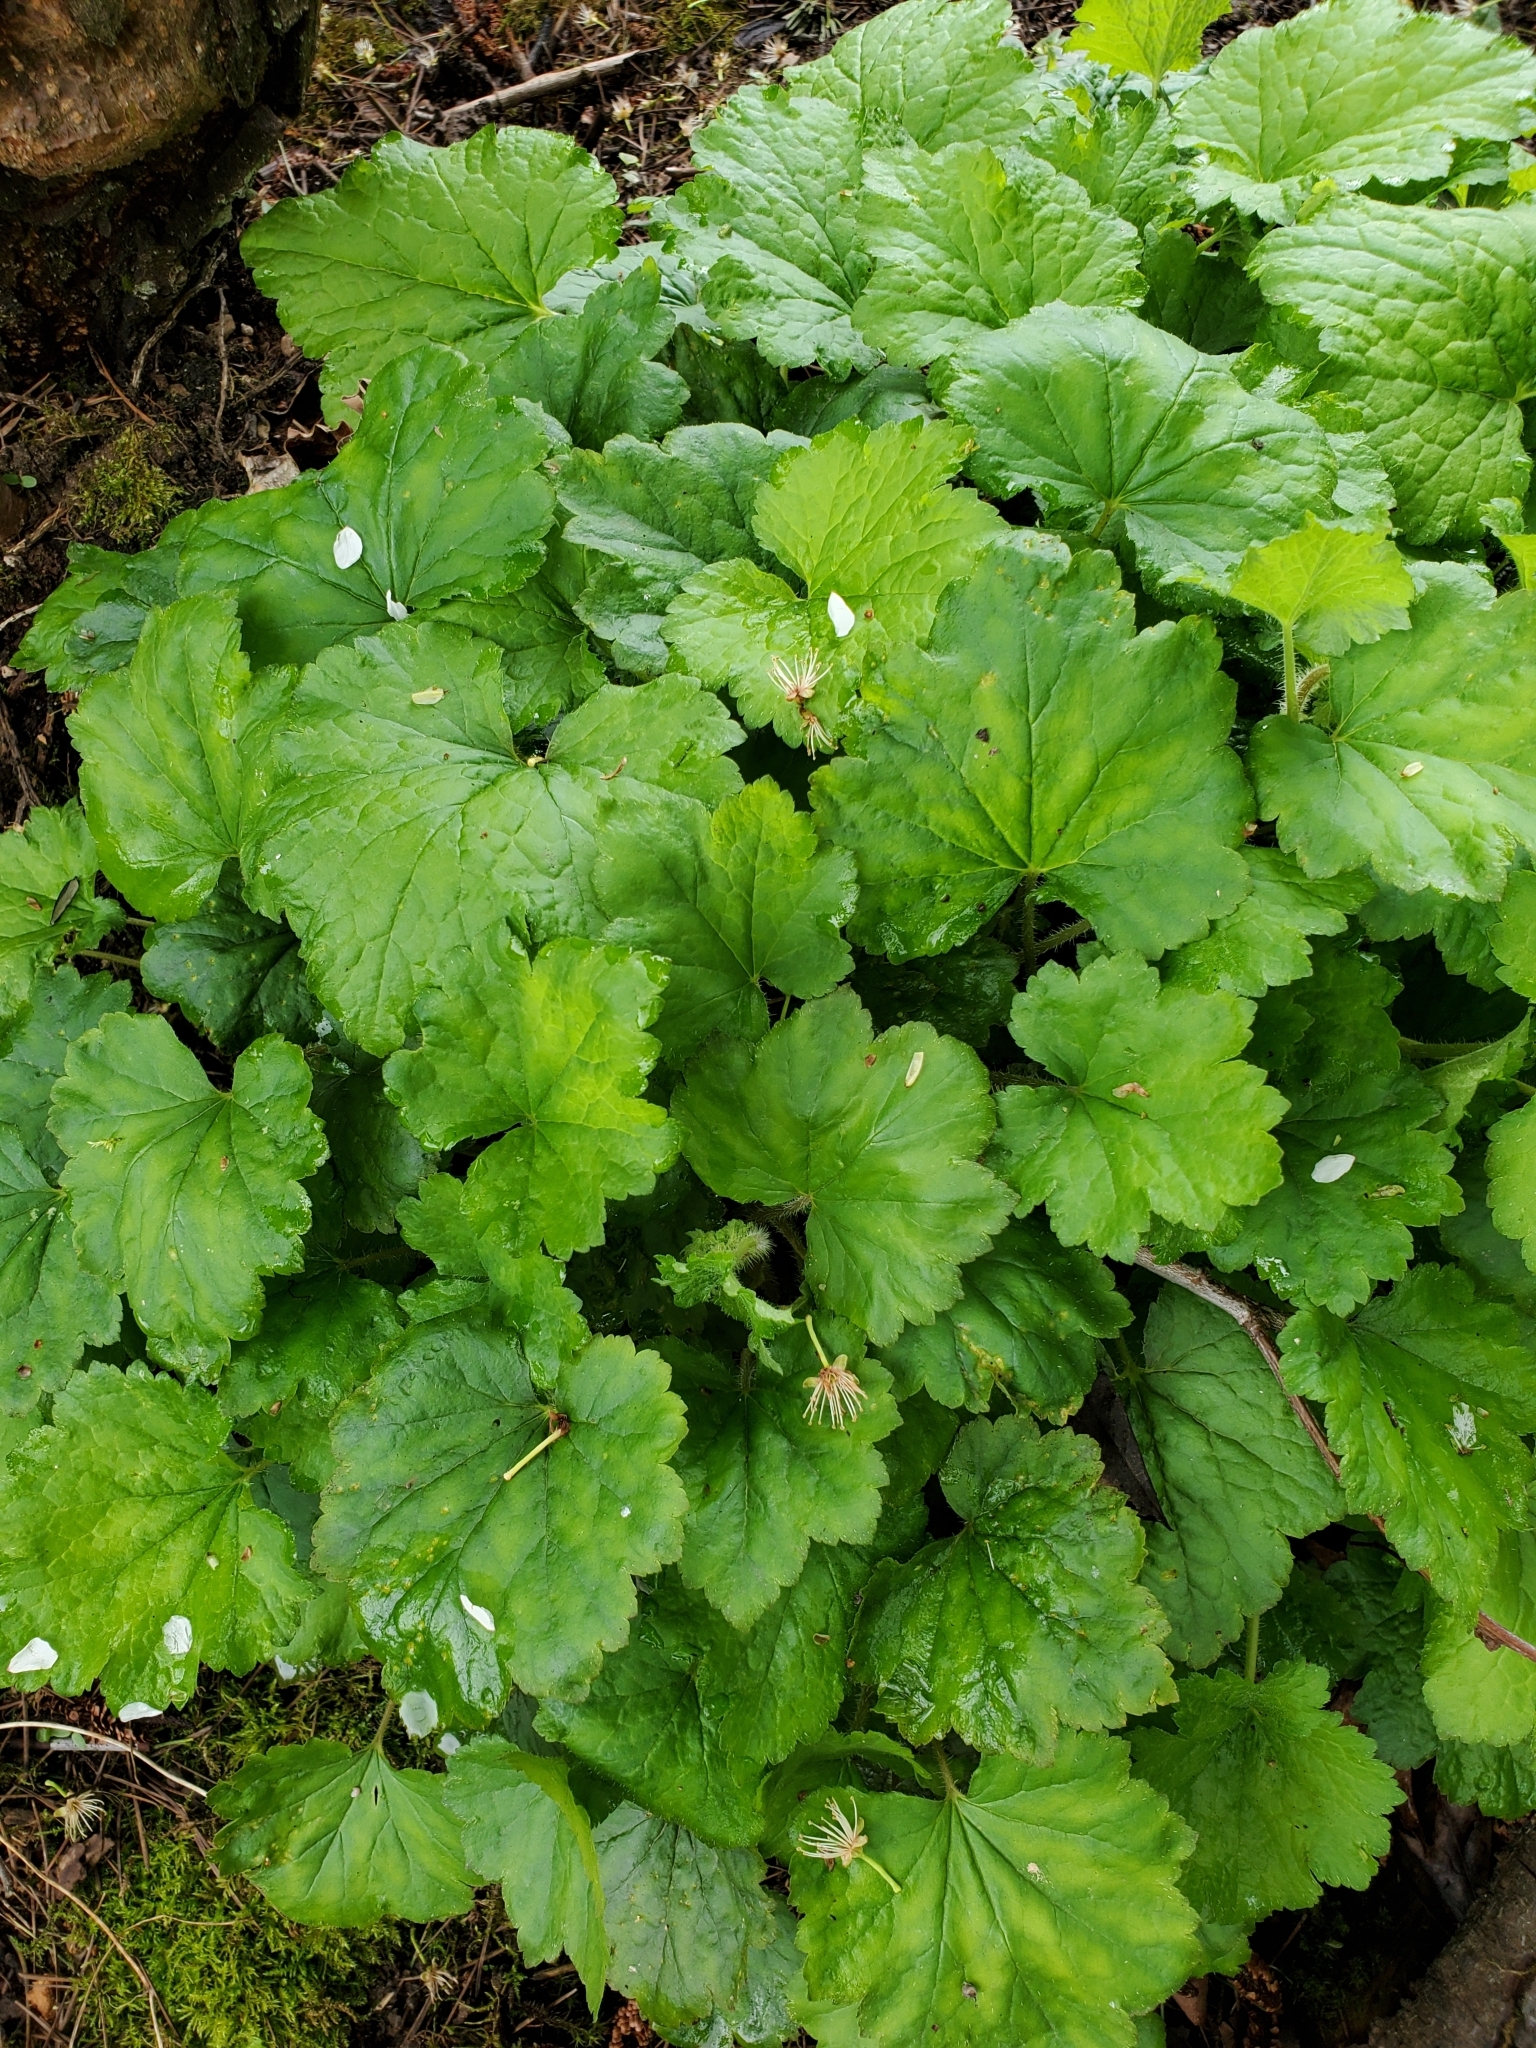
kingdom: Plantae
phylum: Tracheophyta
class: Magnoliopsida
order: Saxifragales
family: Saxifragaceae
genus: Tellima
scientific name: Tellima grandiflora
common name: Fringecups
